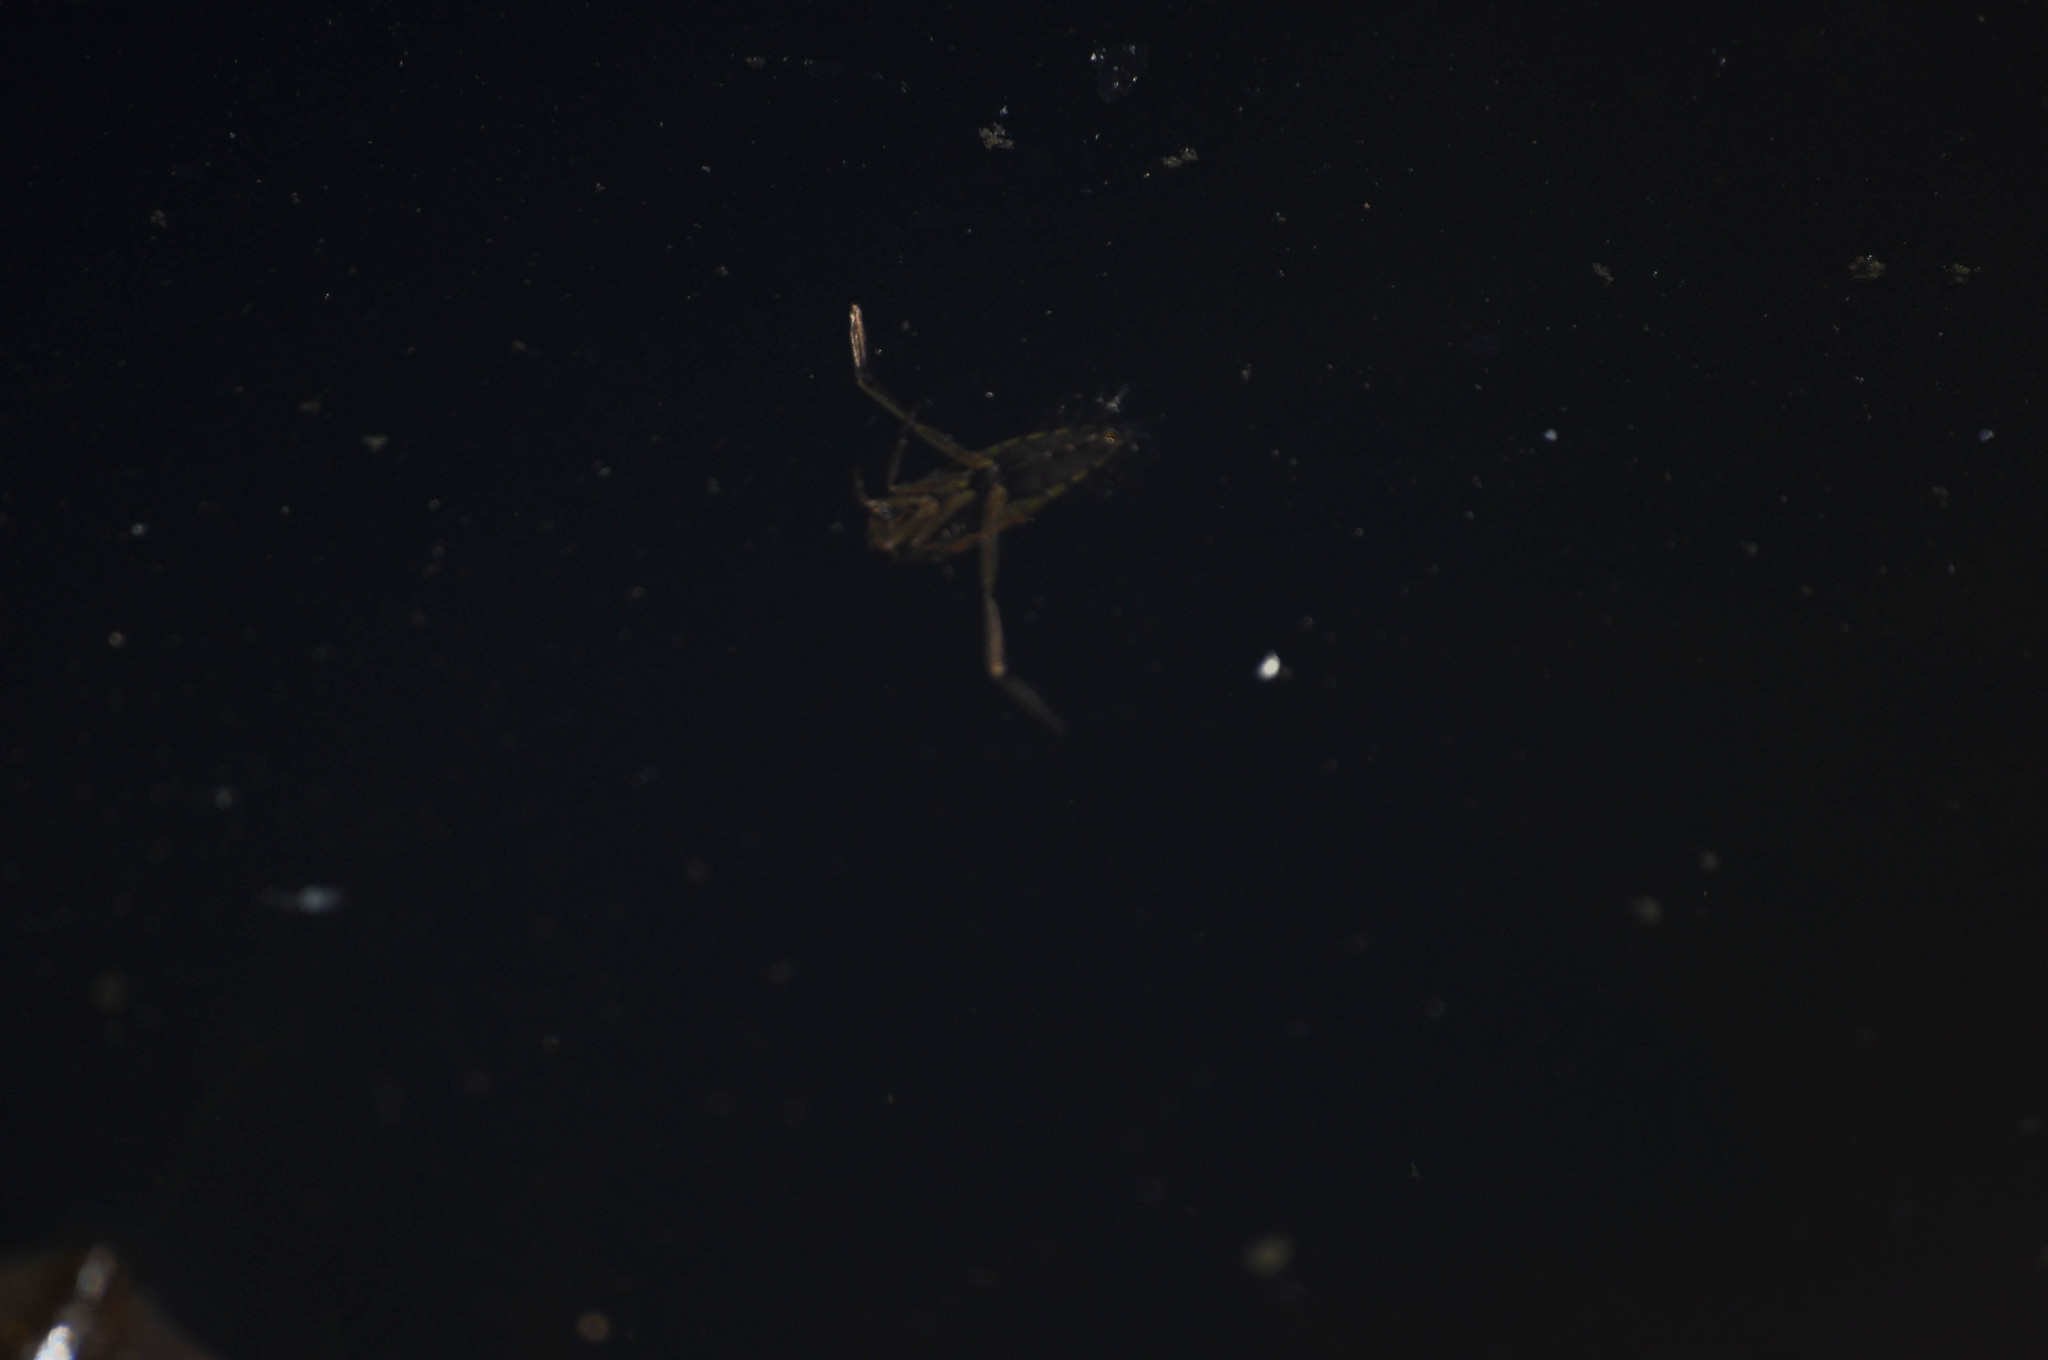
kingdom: Animalia
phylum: Arthropoda
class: Insecta
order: Hemiptera
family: Notonectidae
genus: Notonecta
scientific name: Notonecta
